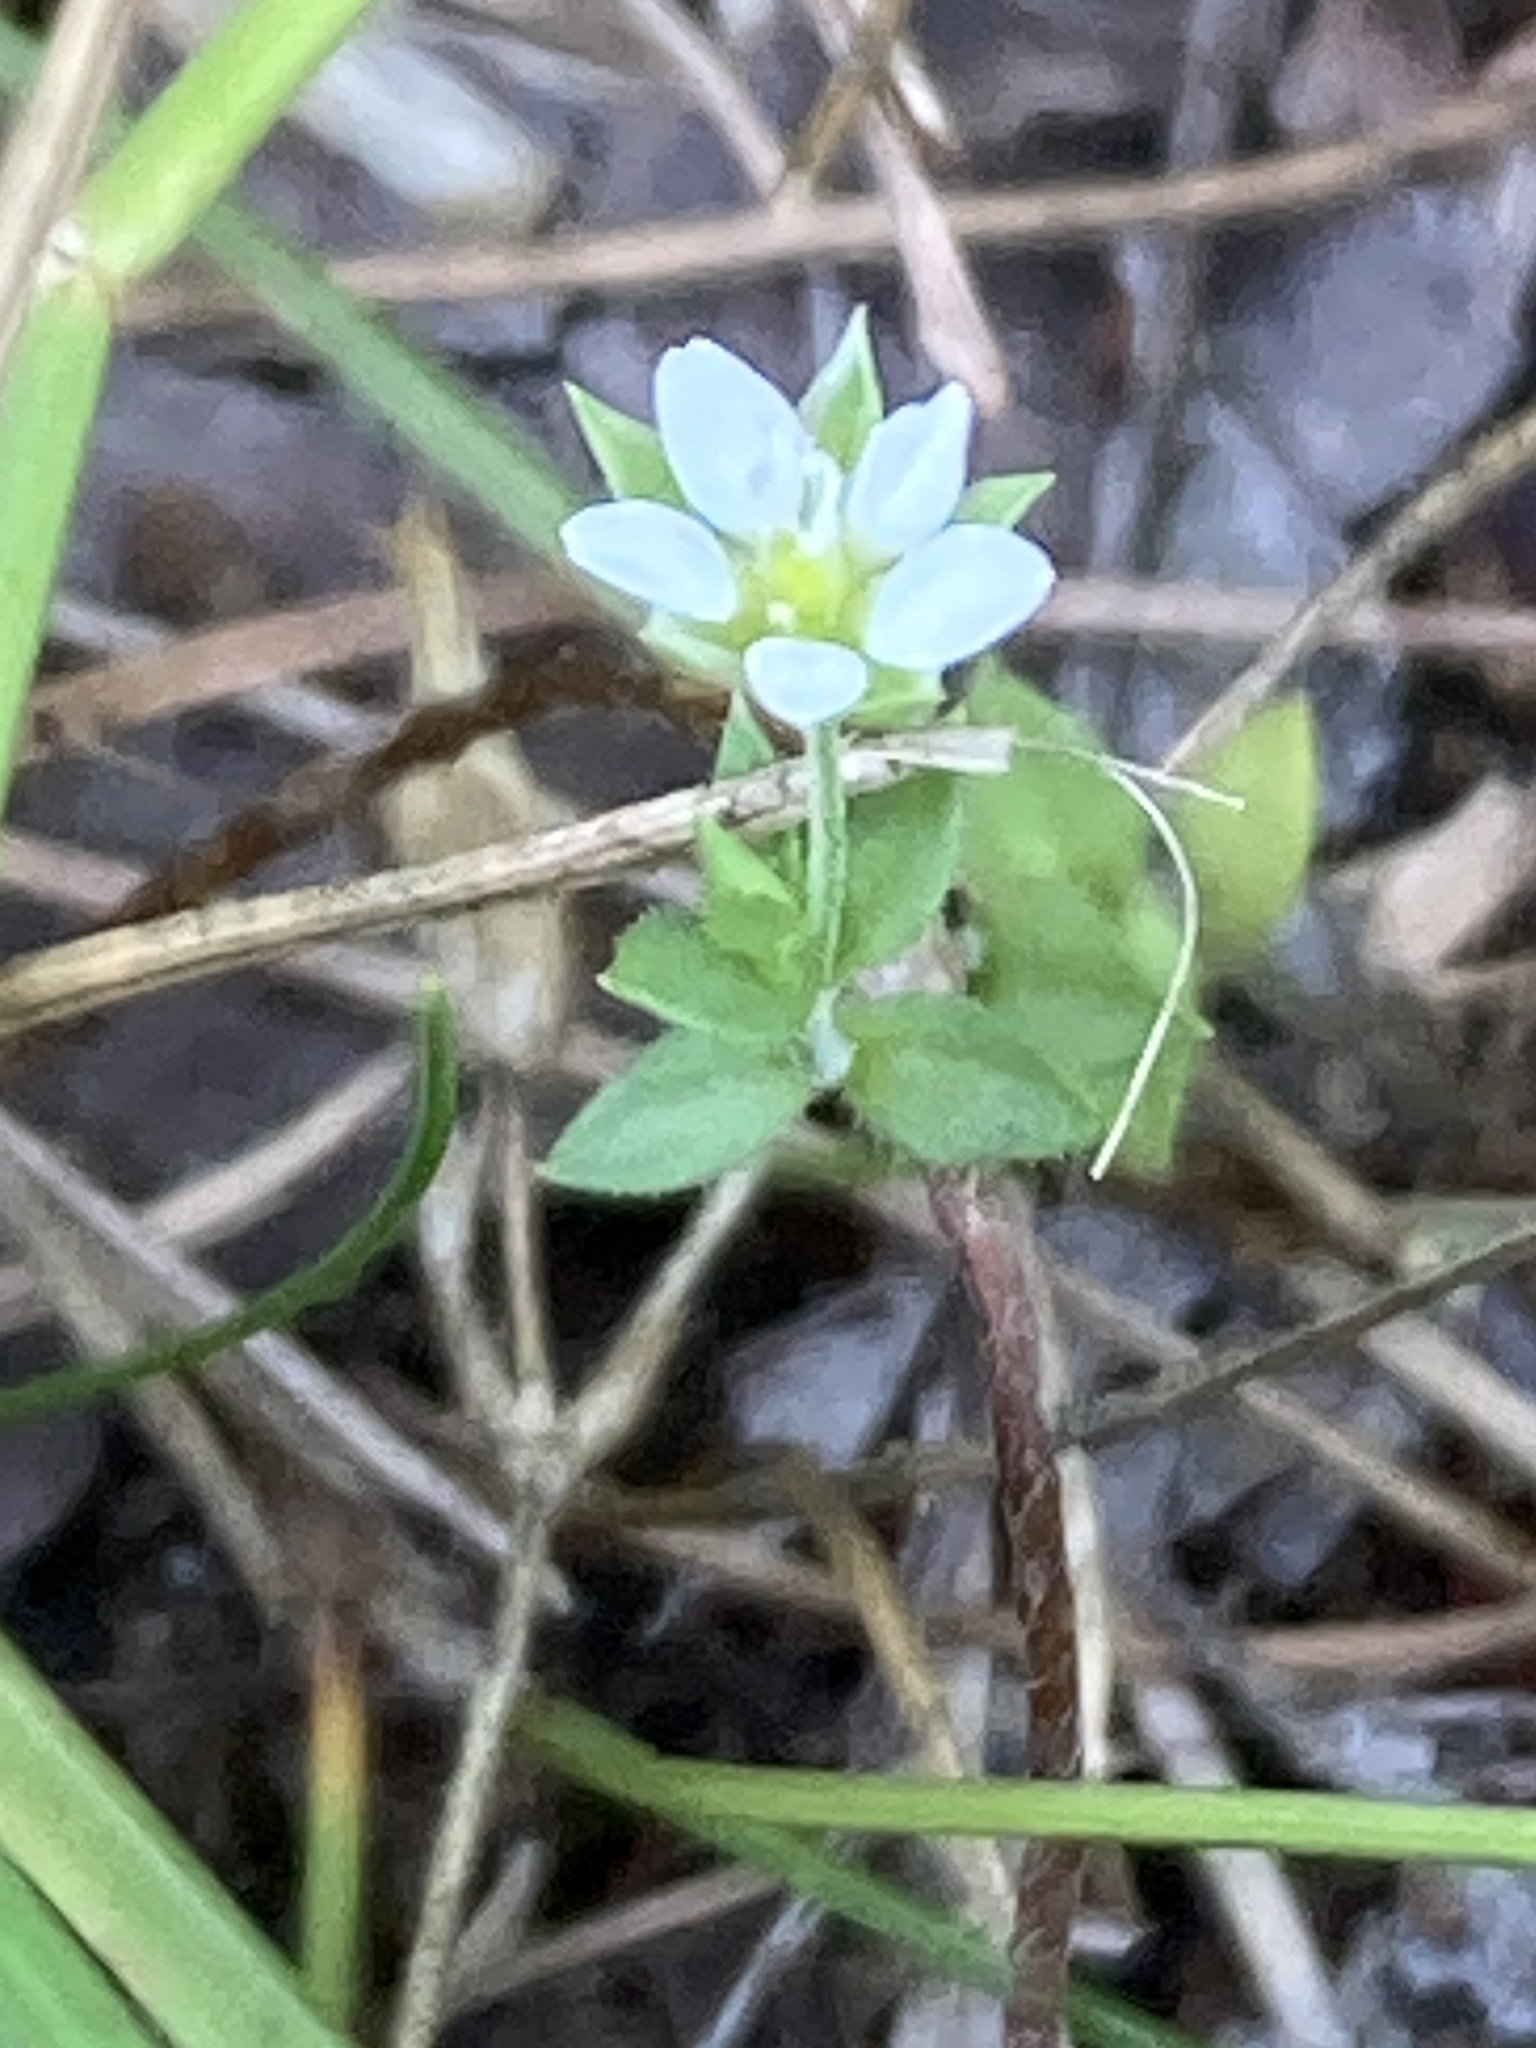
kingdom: Plantae
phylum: Tracheophyta
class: Magnoliopsida
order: Caryophyllales
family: Caryophyllaceae
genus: Arenaria
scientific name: Arenaria serpyllifolia
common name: Thyme-leaved sandwort
